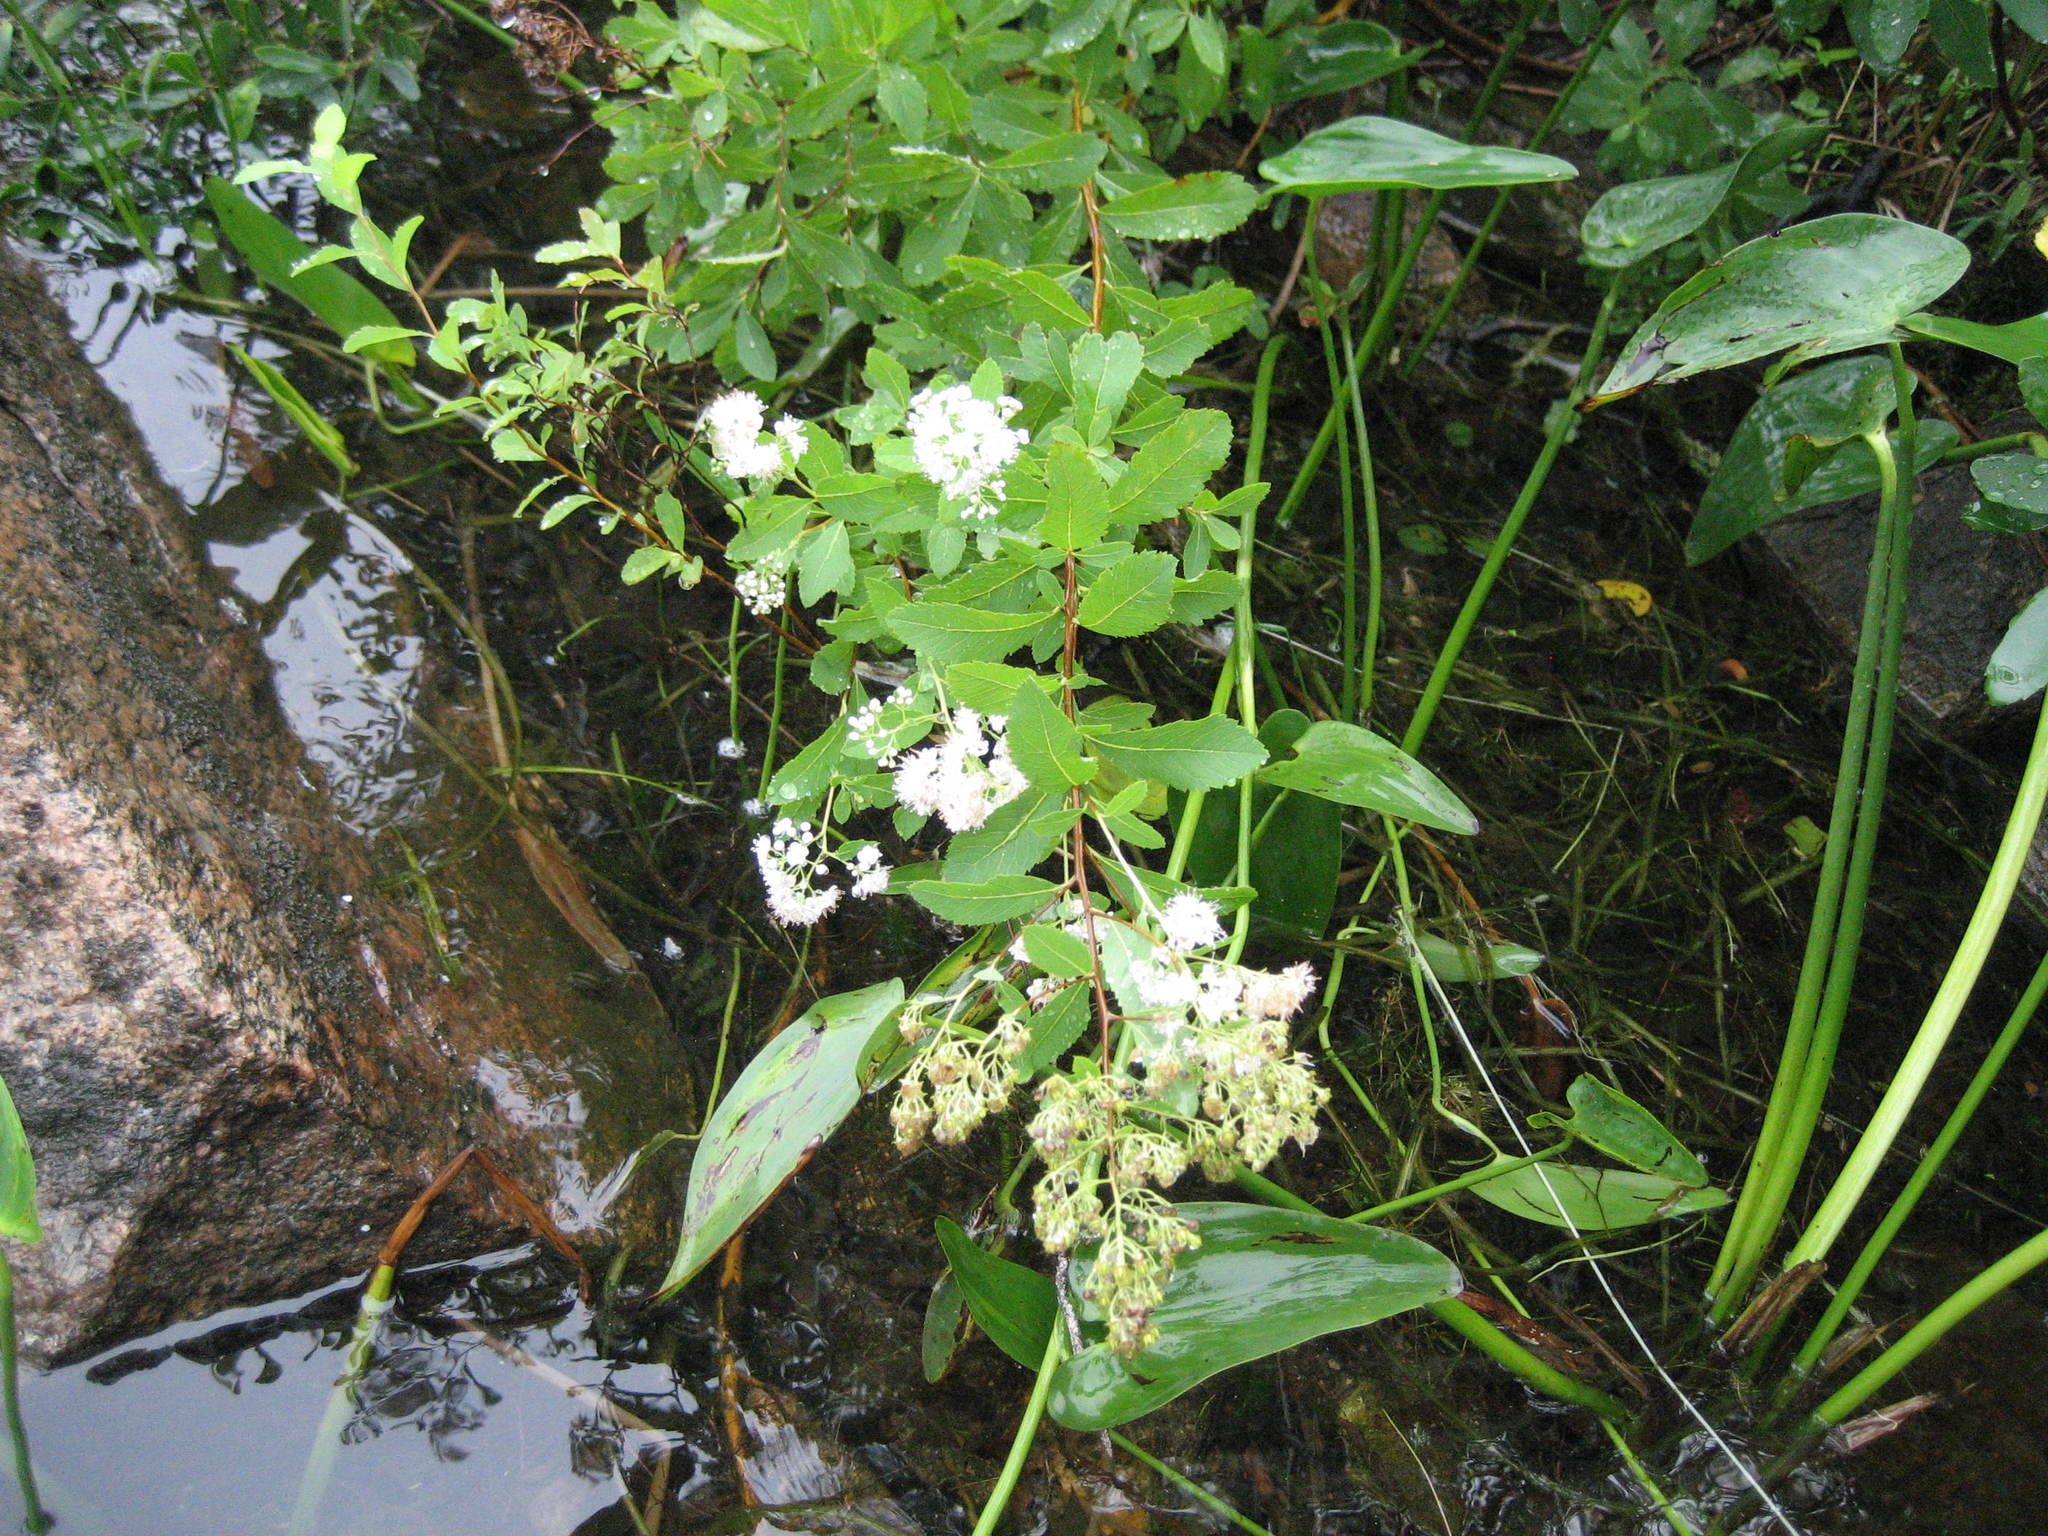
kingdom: Plantae
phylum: Tracheophyta
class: Magnoliopsida
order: Rosales
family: Rosaceae
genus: Spiraea
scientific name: Spiraea alba
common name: Pale bridewort
